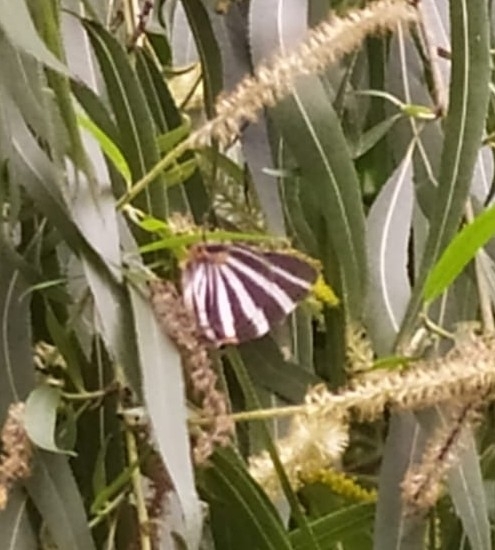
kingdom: Animalia
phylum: Arthropoda
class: Insecta
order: Lepidoptera
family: Lycaenidae
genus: Thecla
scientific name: Thecla bathildis
